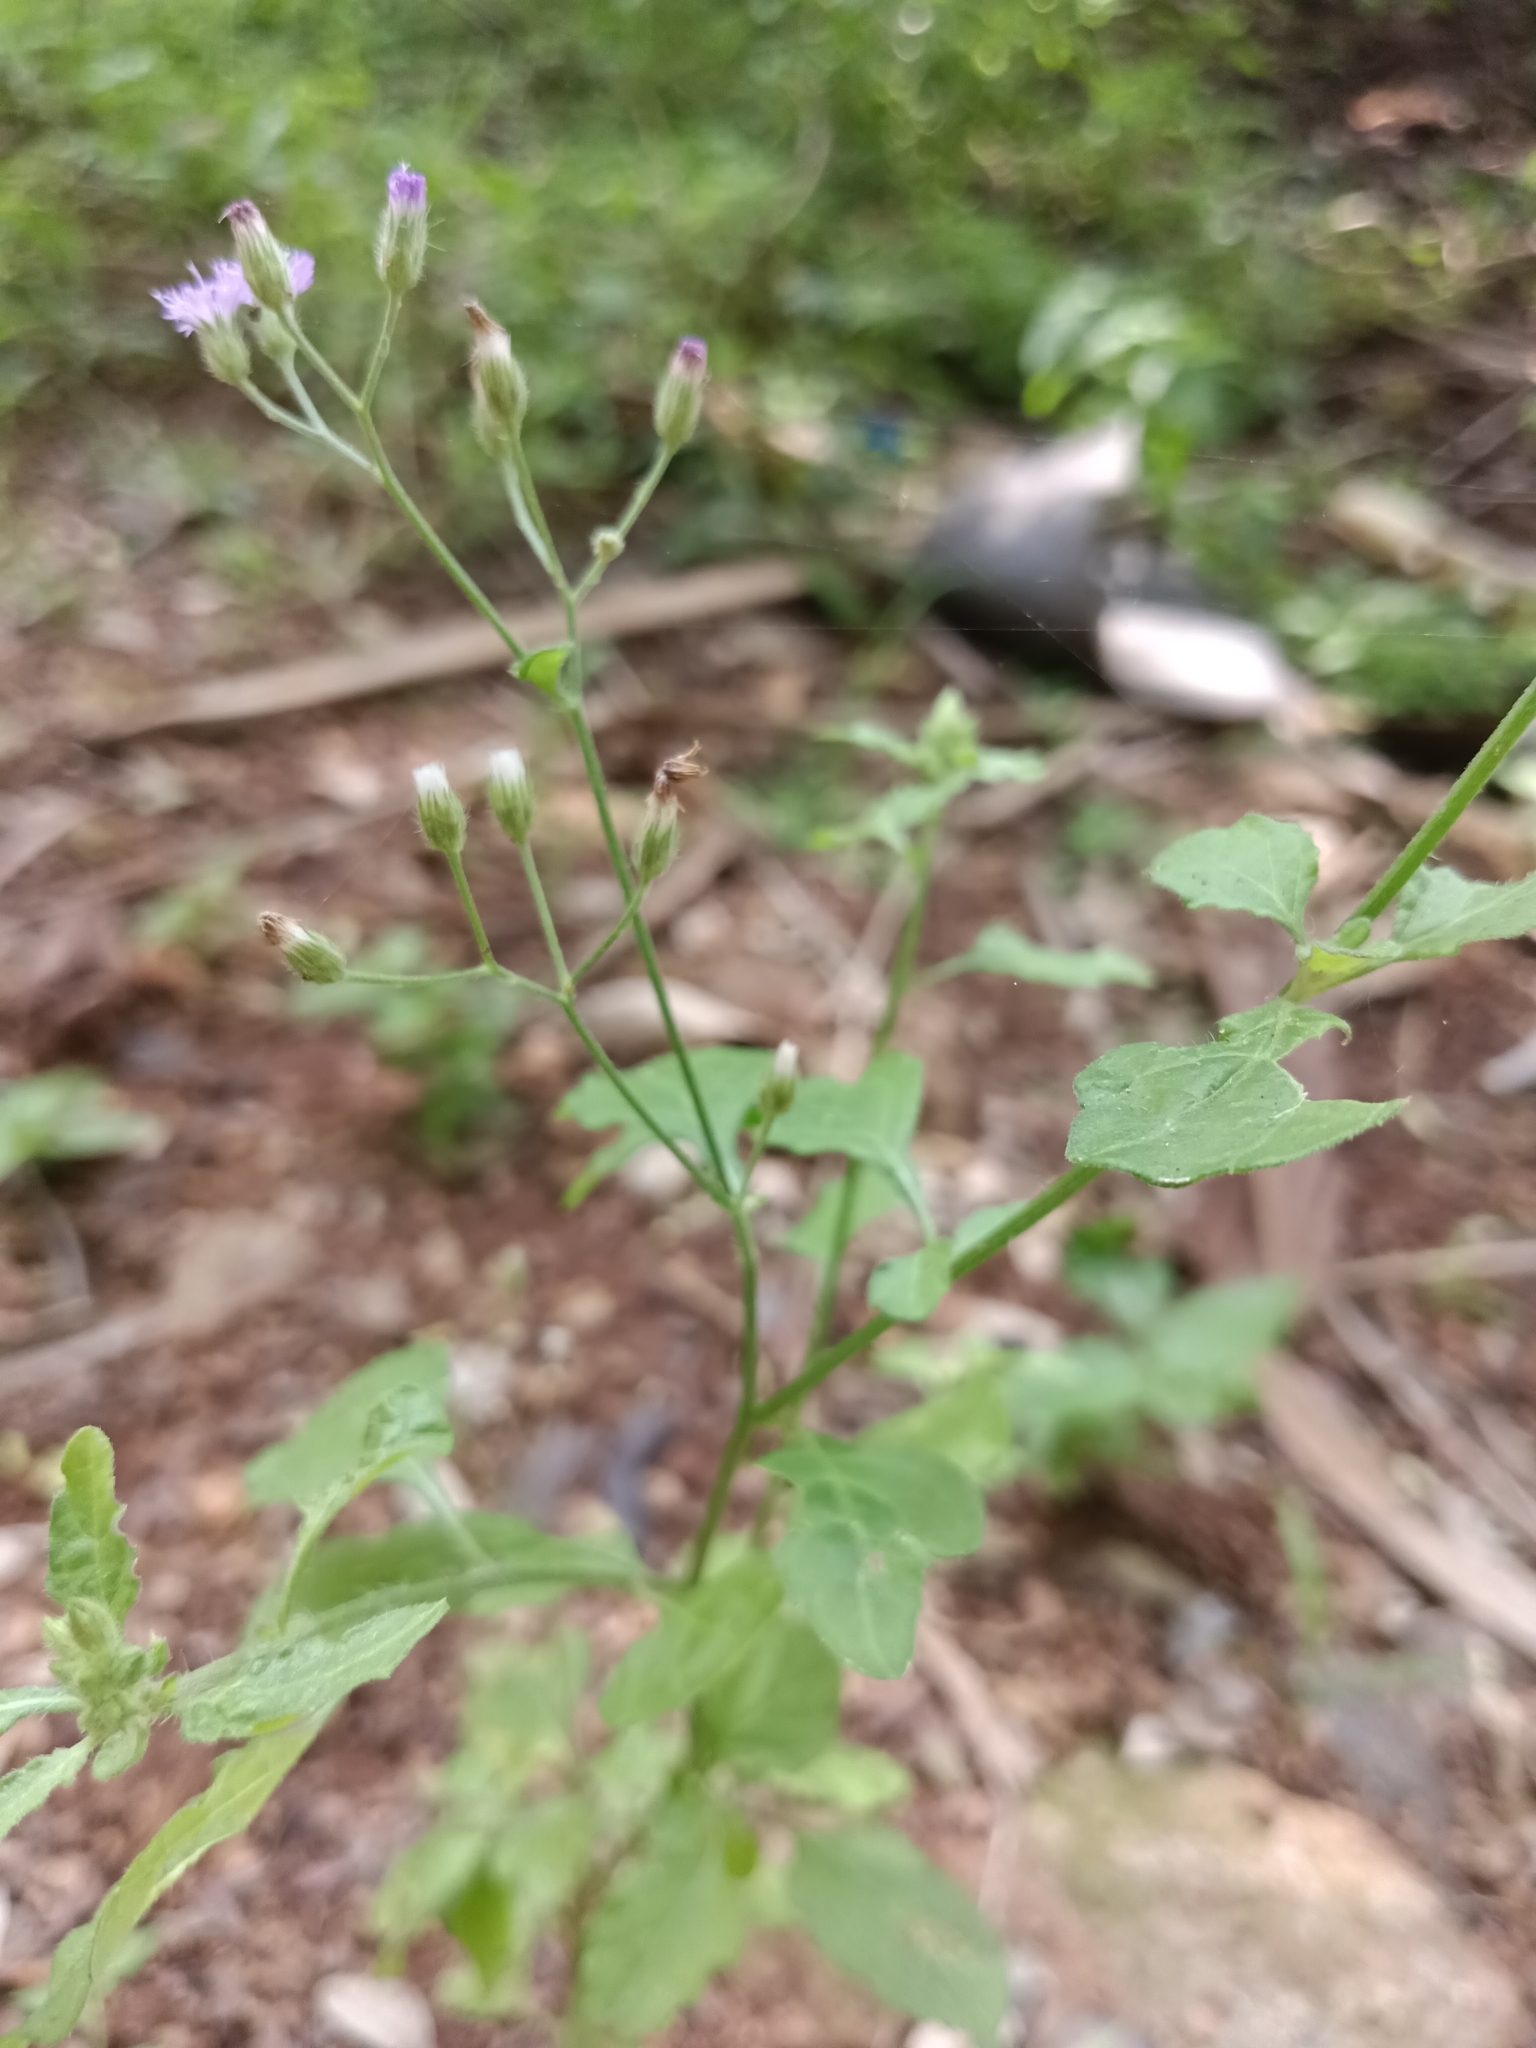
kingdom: Plantae
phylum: Tracheophyta
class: Magnoliopsida
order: Asterales
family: Asteraceae
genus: Cyanthillium
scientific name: Cyanthillium cinereum
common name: Little ironweed
